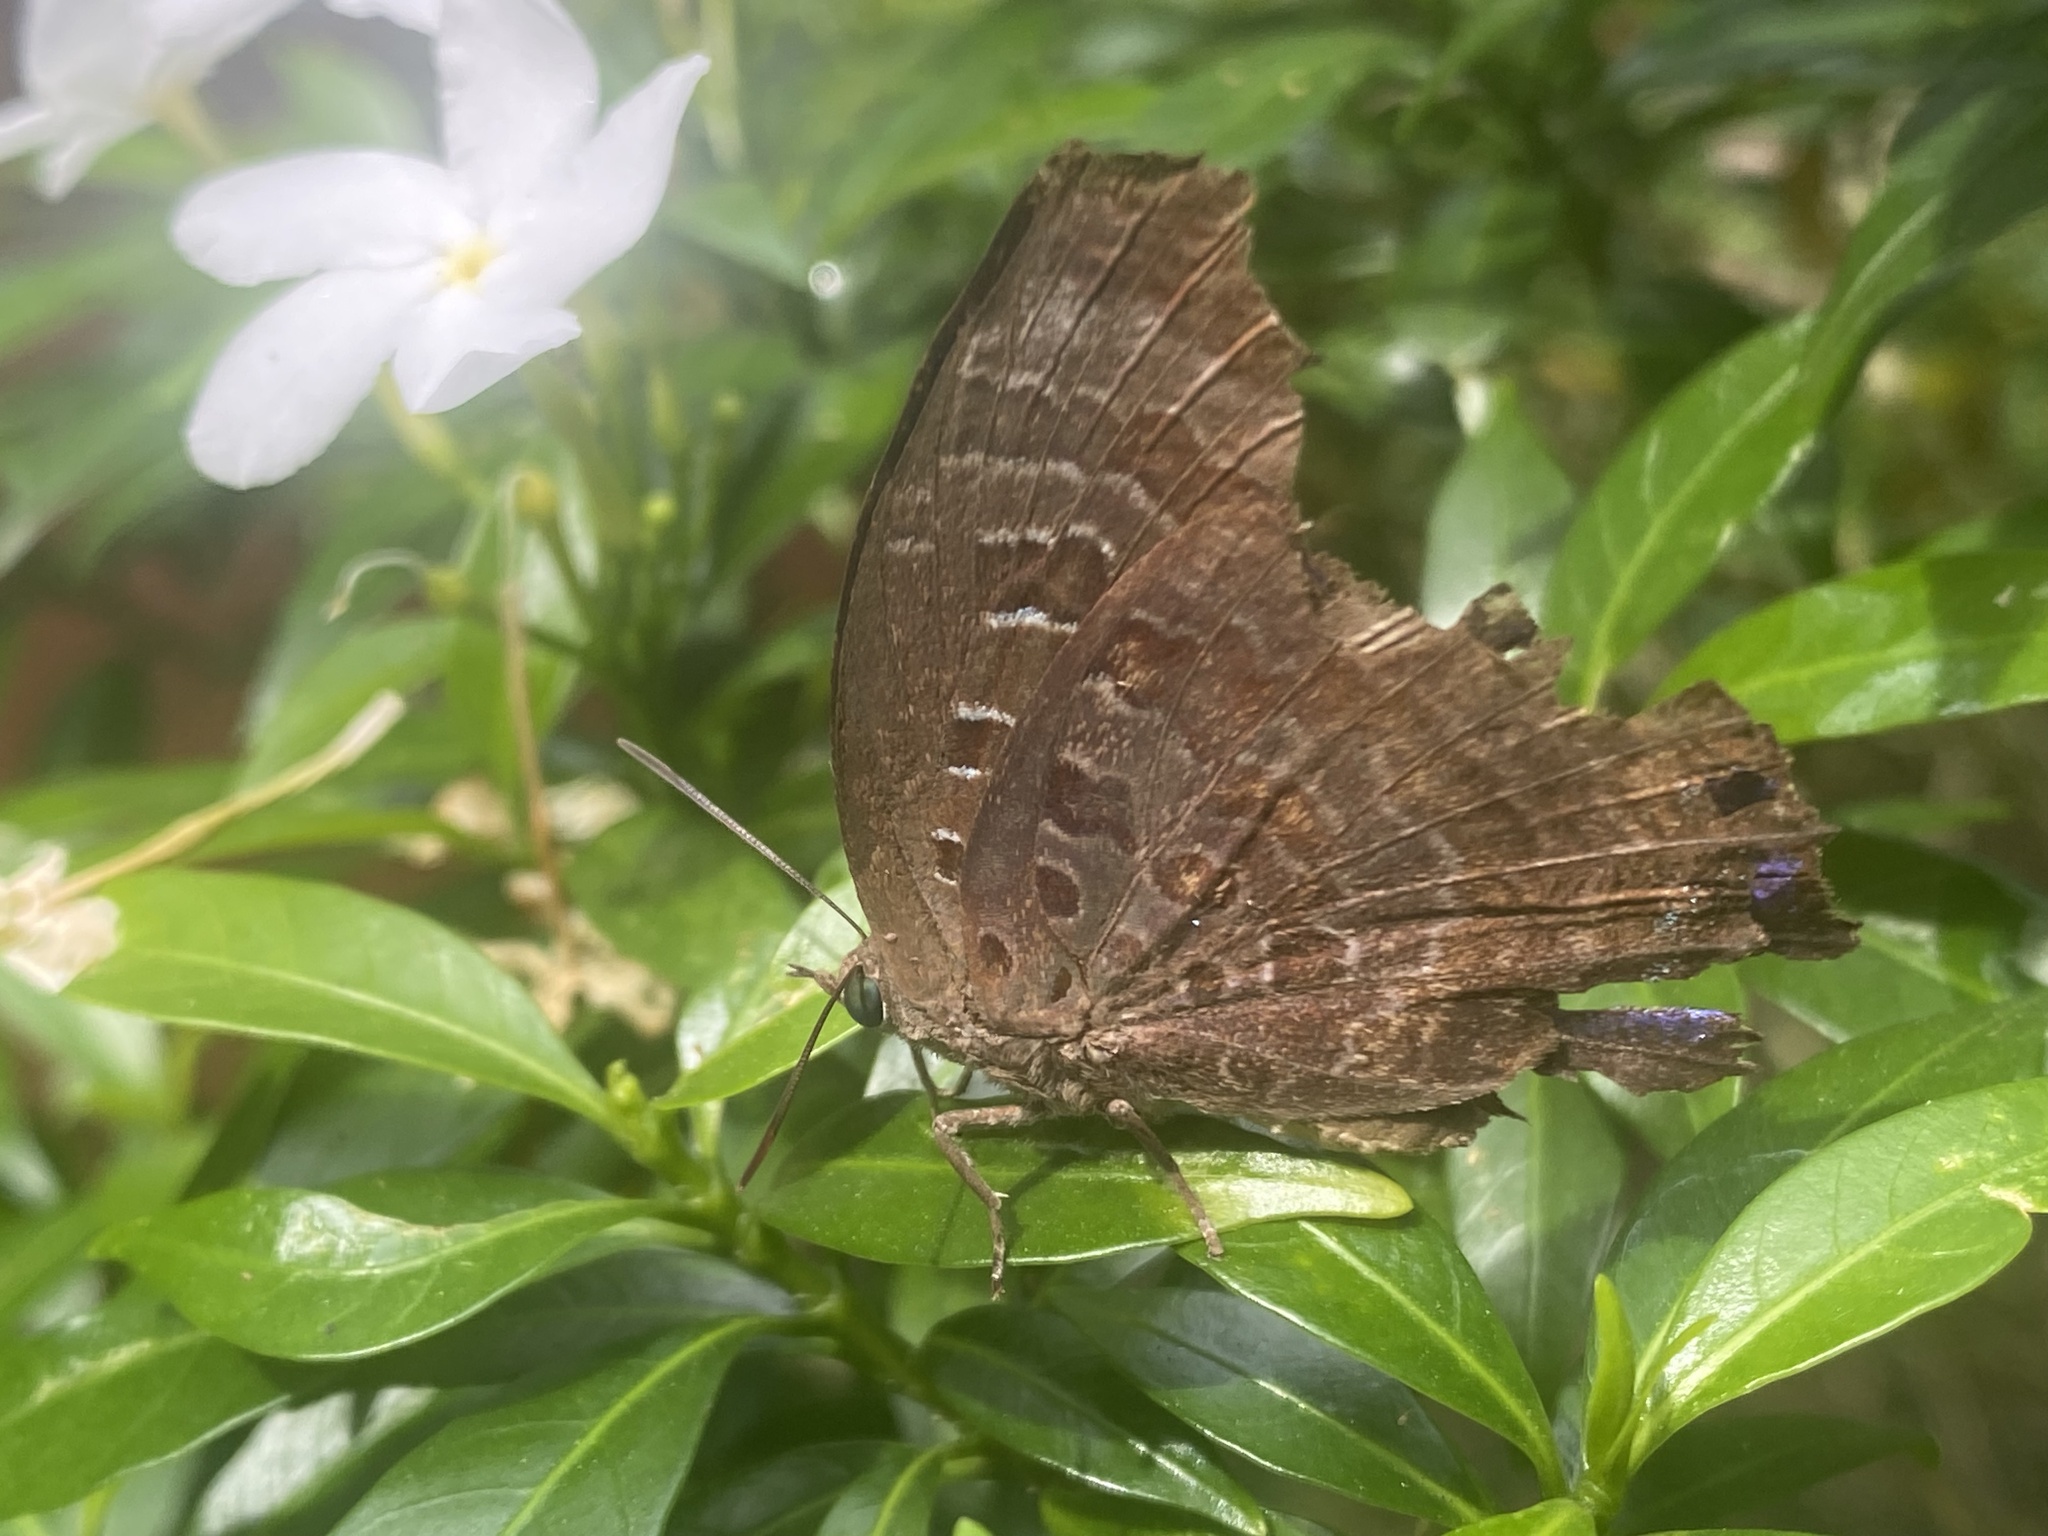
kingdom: Animalia
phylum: Arthropoda
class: Insecta
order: Lepidoptera
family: Lycaenidae
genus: Arhopala
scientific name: Arhopala centaurus
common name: Dull oak-blue
